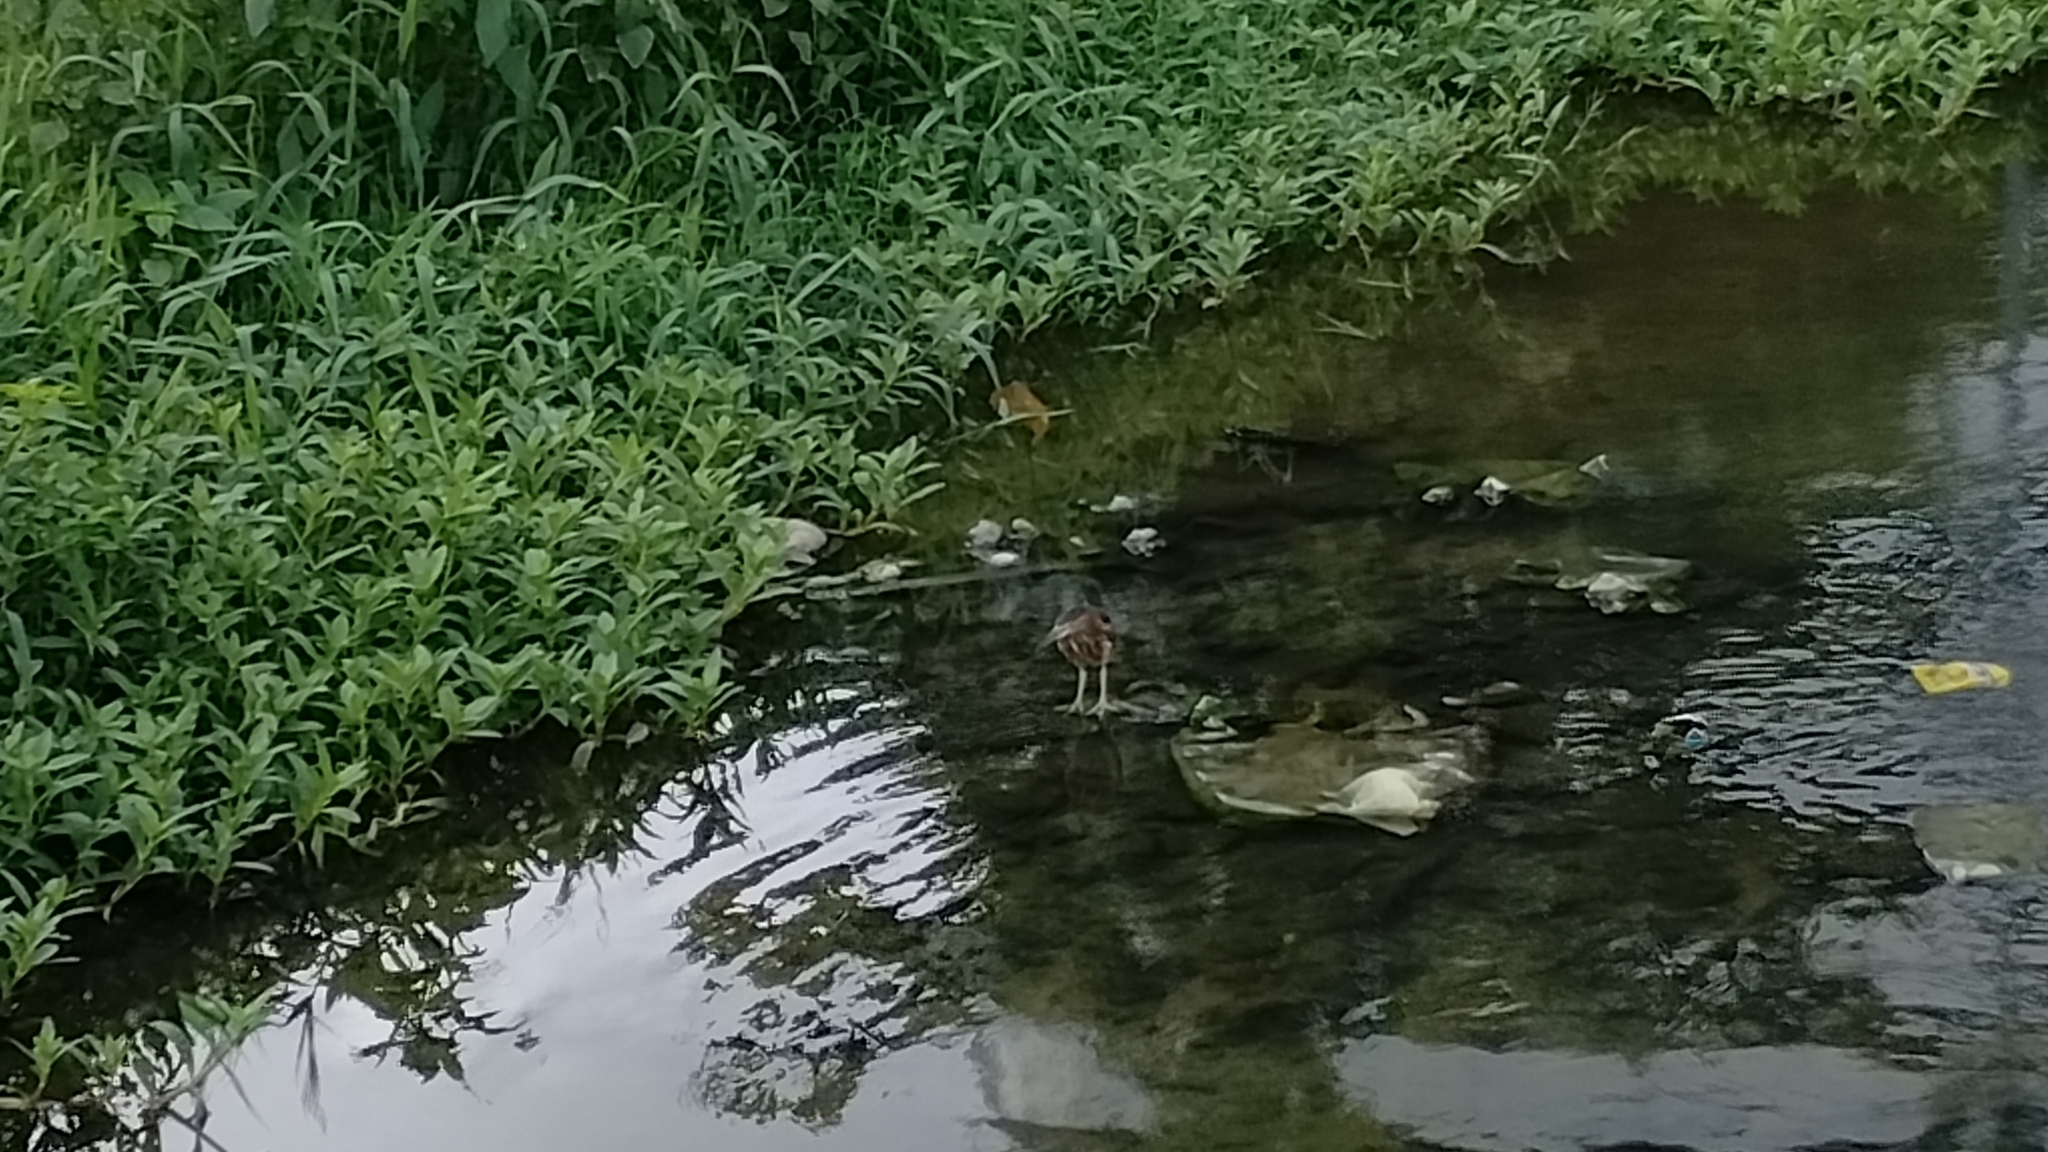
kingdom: Animalia
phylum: Chordata
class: Aves
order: Pelecaniformes
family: Ardeidae
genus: Butorides
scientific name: Butorides striata
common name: Striated heron
